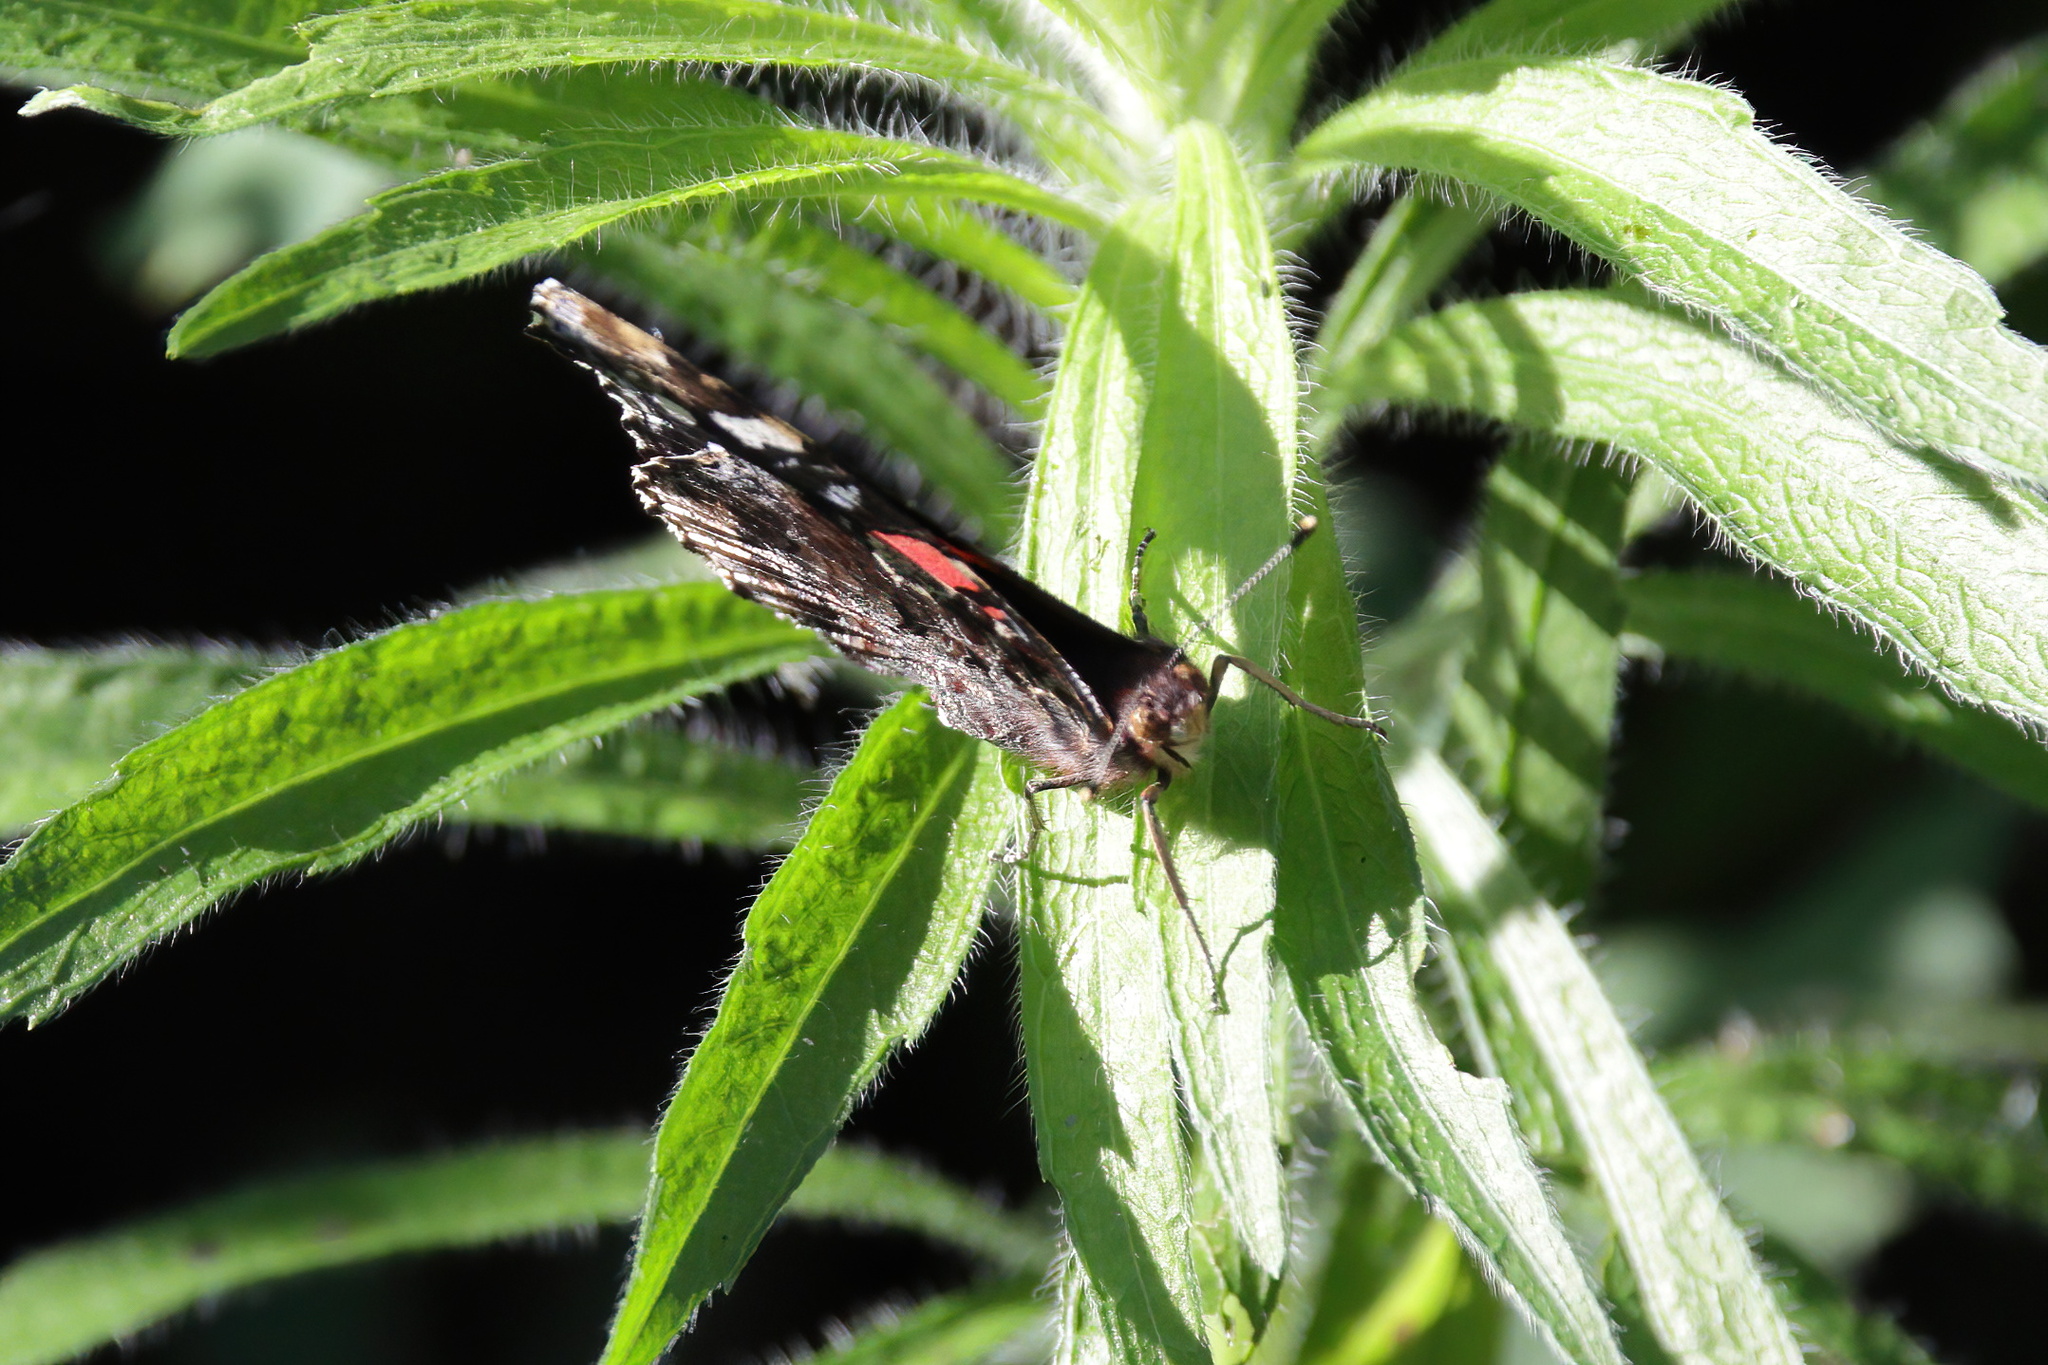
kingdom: Animalia
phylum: Arthropoda
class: Insecta
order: Lepidoptera
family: Nymphalidae
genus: Vanessa
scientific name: Vanessa atalanta
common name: Red admiral
